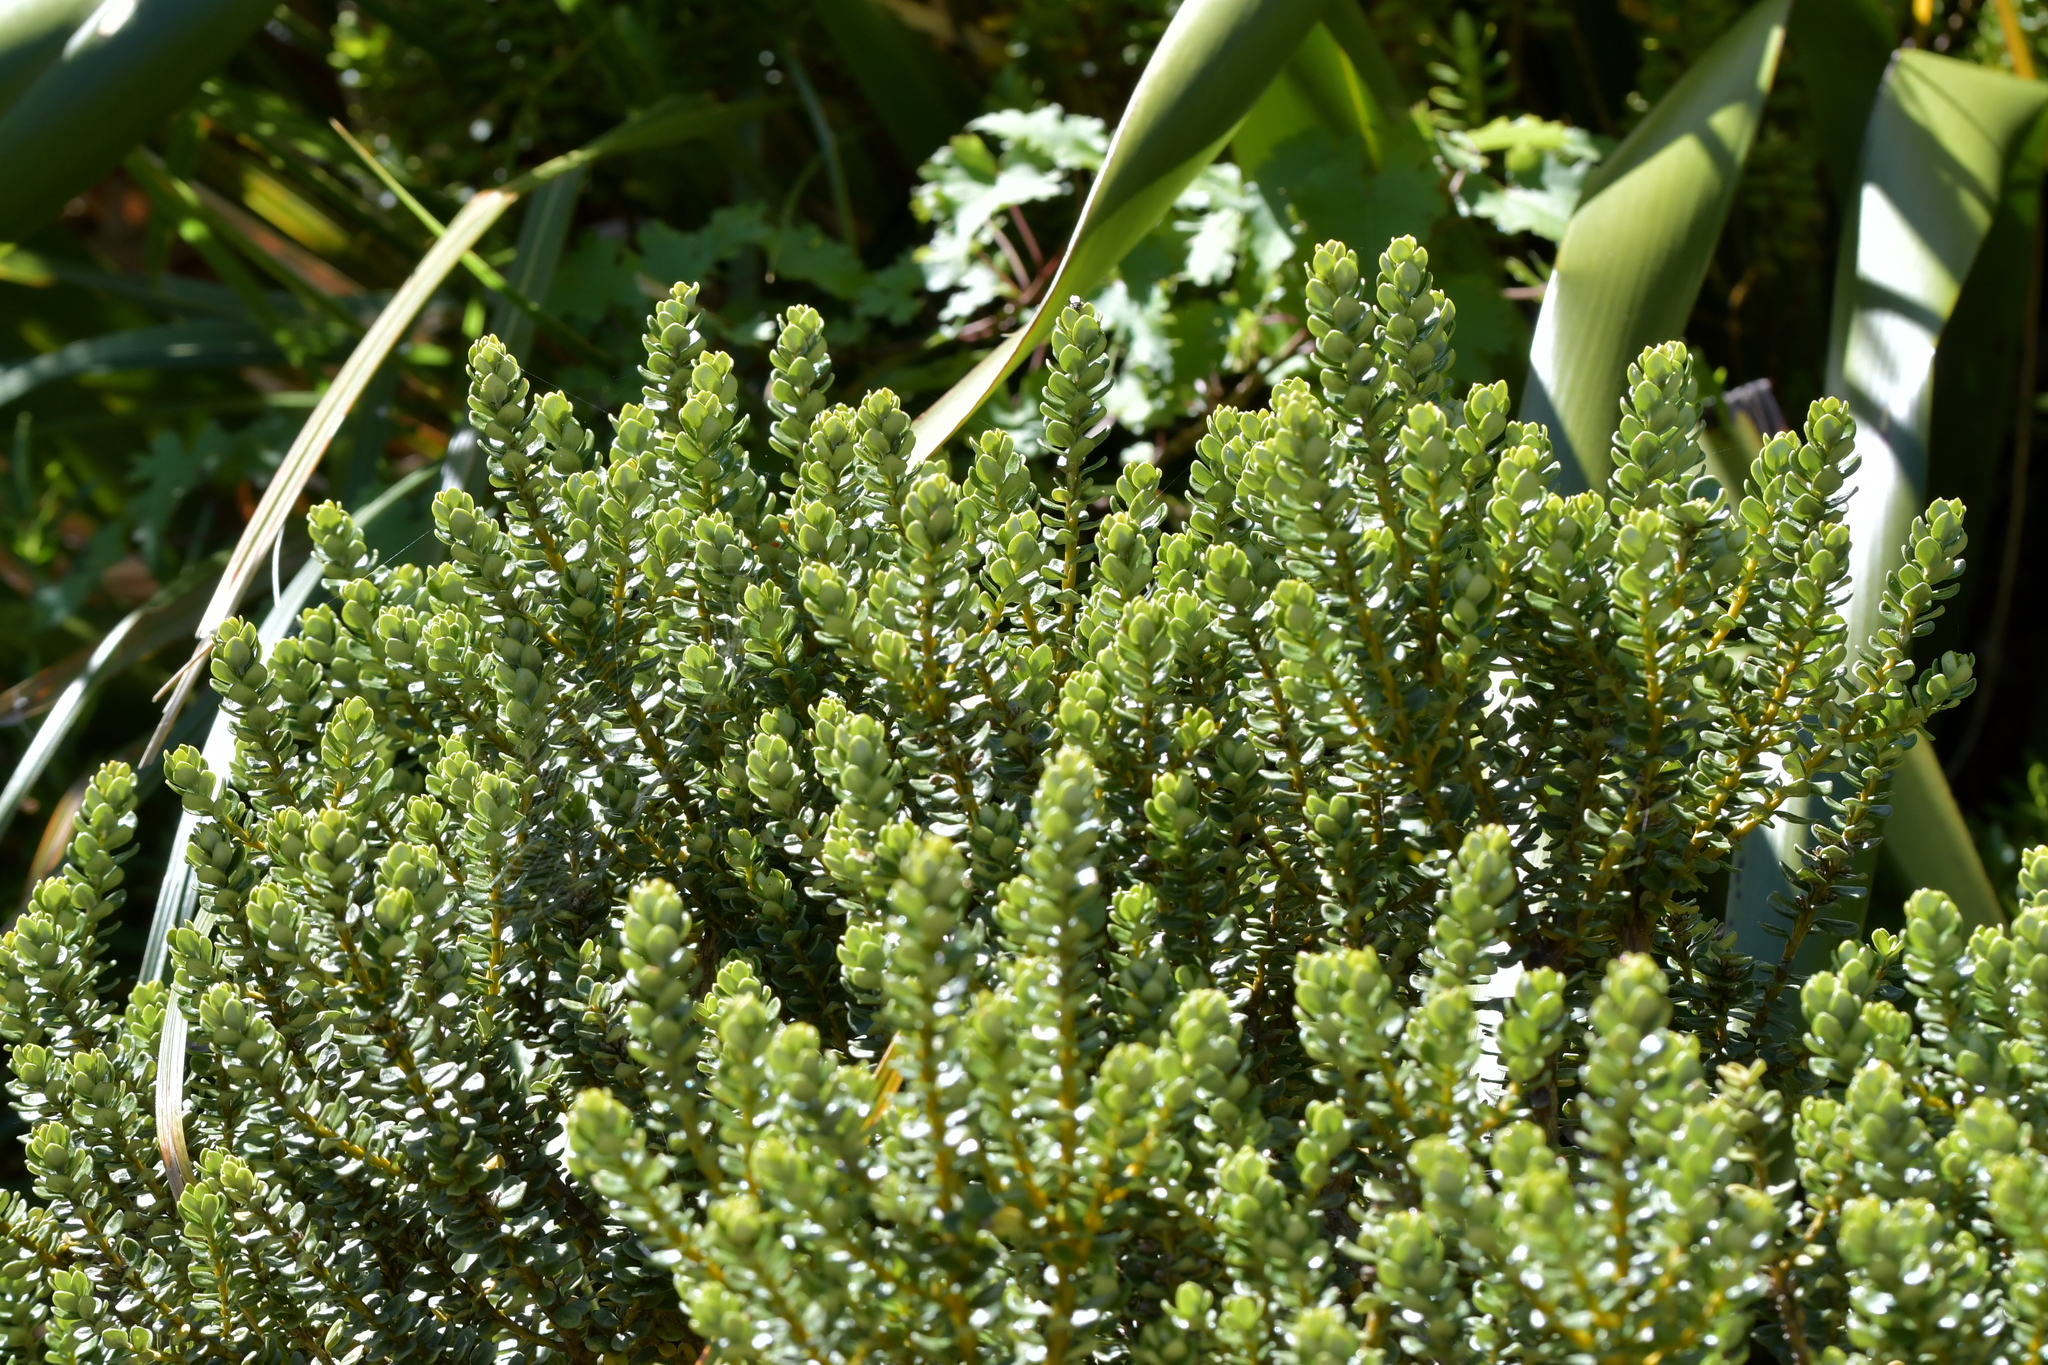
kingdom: Plantae
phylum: Tracheophyta
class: Magnoliopsida
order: Asterales
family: Asteraceae
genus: Olearia
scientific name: Olearia nummularifolia
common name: Sticky daisybush
